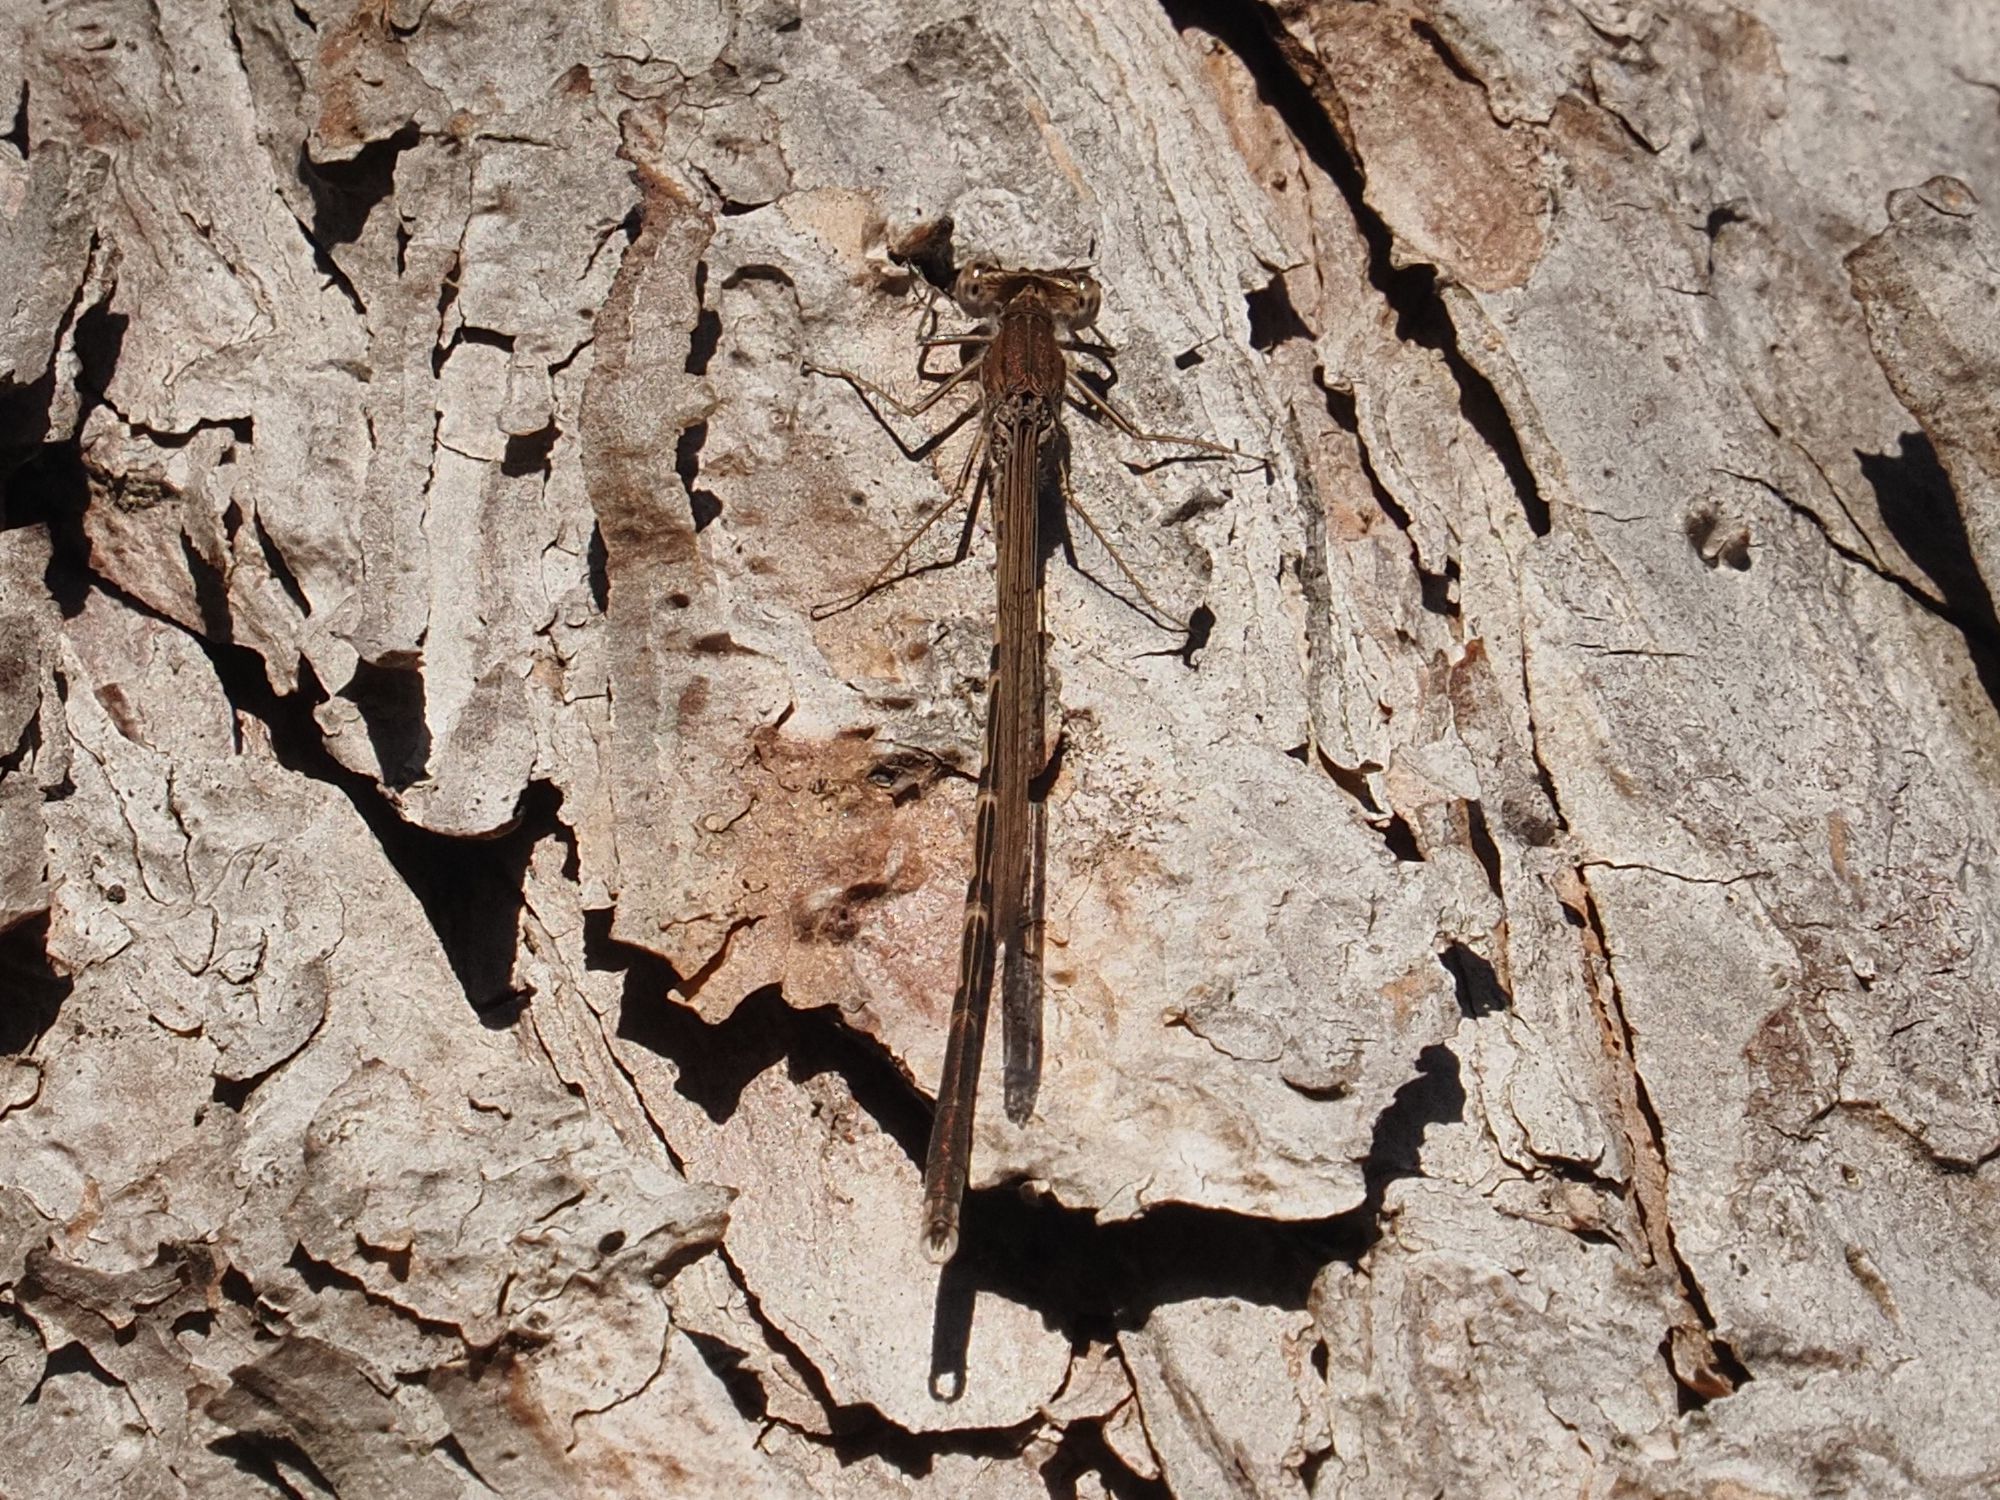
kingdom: Animalia
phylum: Arthropoda
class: Insecta
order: Odonata
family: Lestidae
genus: Sympecma
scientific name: Sympecma fusca
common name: Common winter damsel
